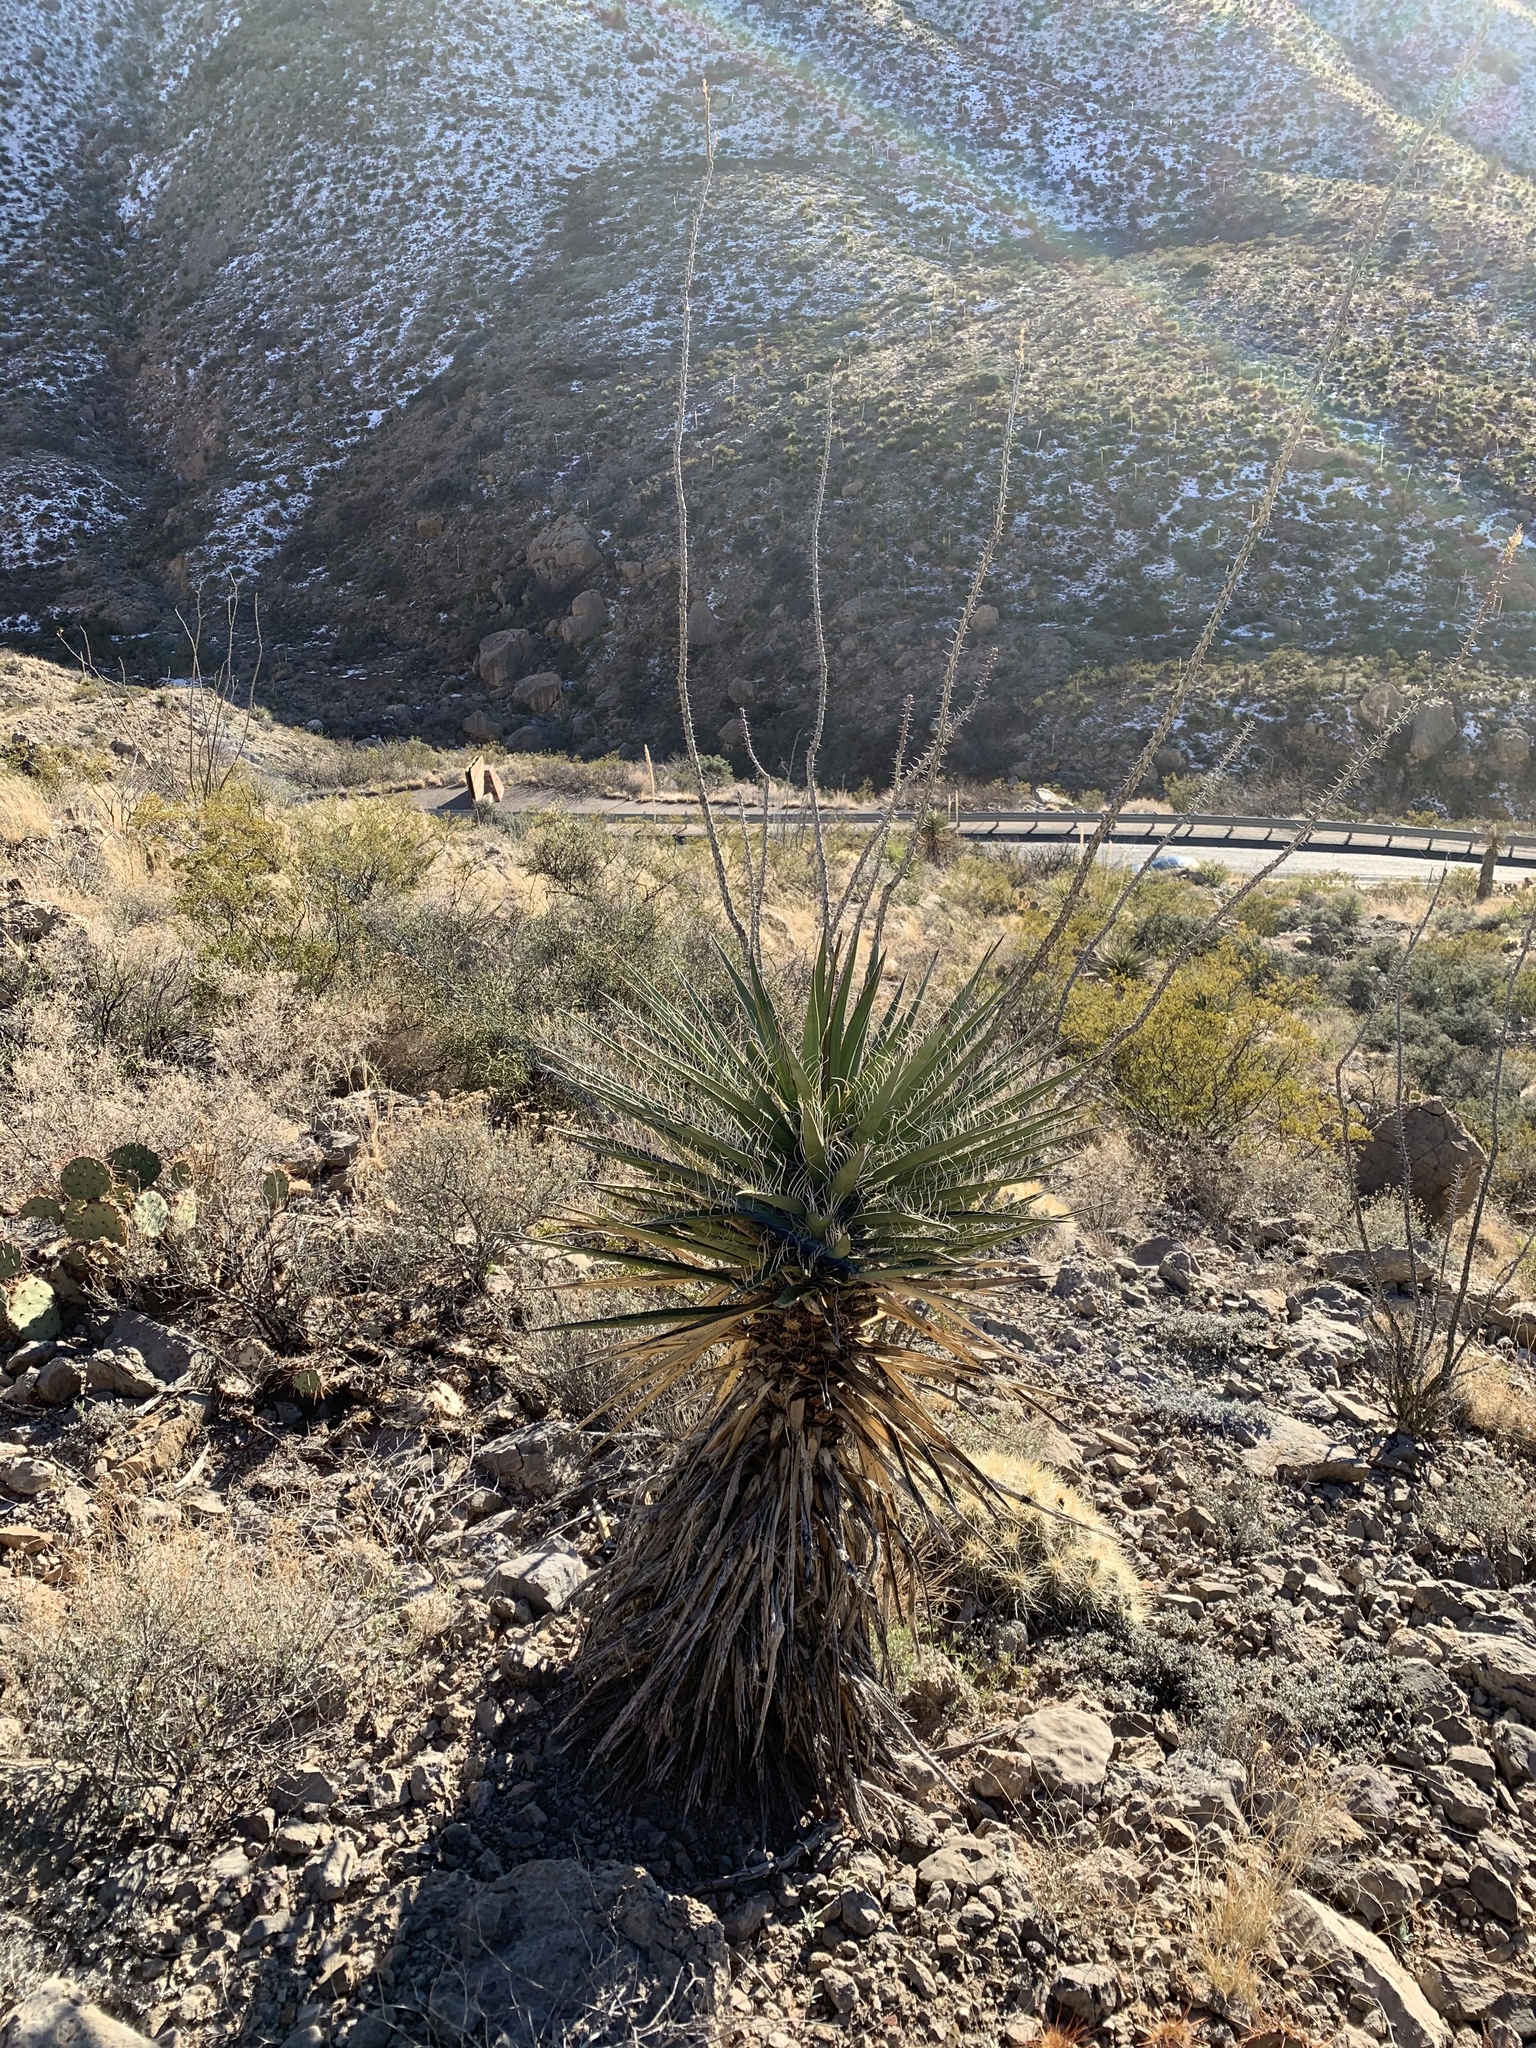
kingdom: Plantae
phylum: Tracheophyta
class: Liliopsida
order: Asparagales
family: Asparagaceae
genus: Yucca
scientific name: Yucca treculiana
